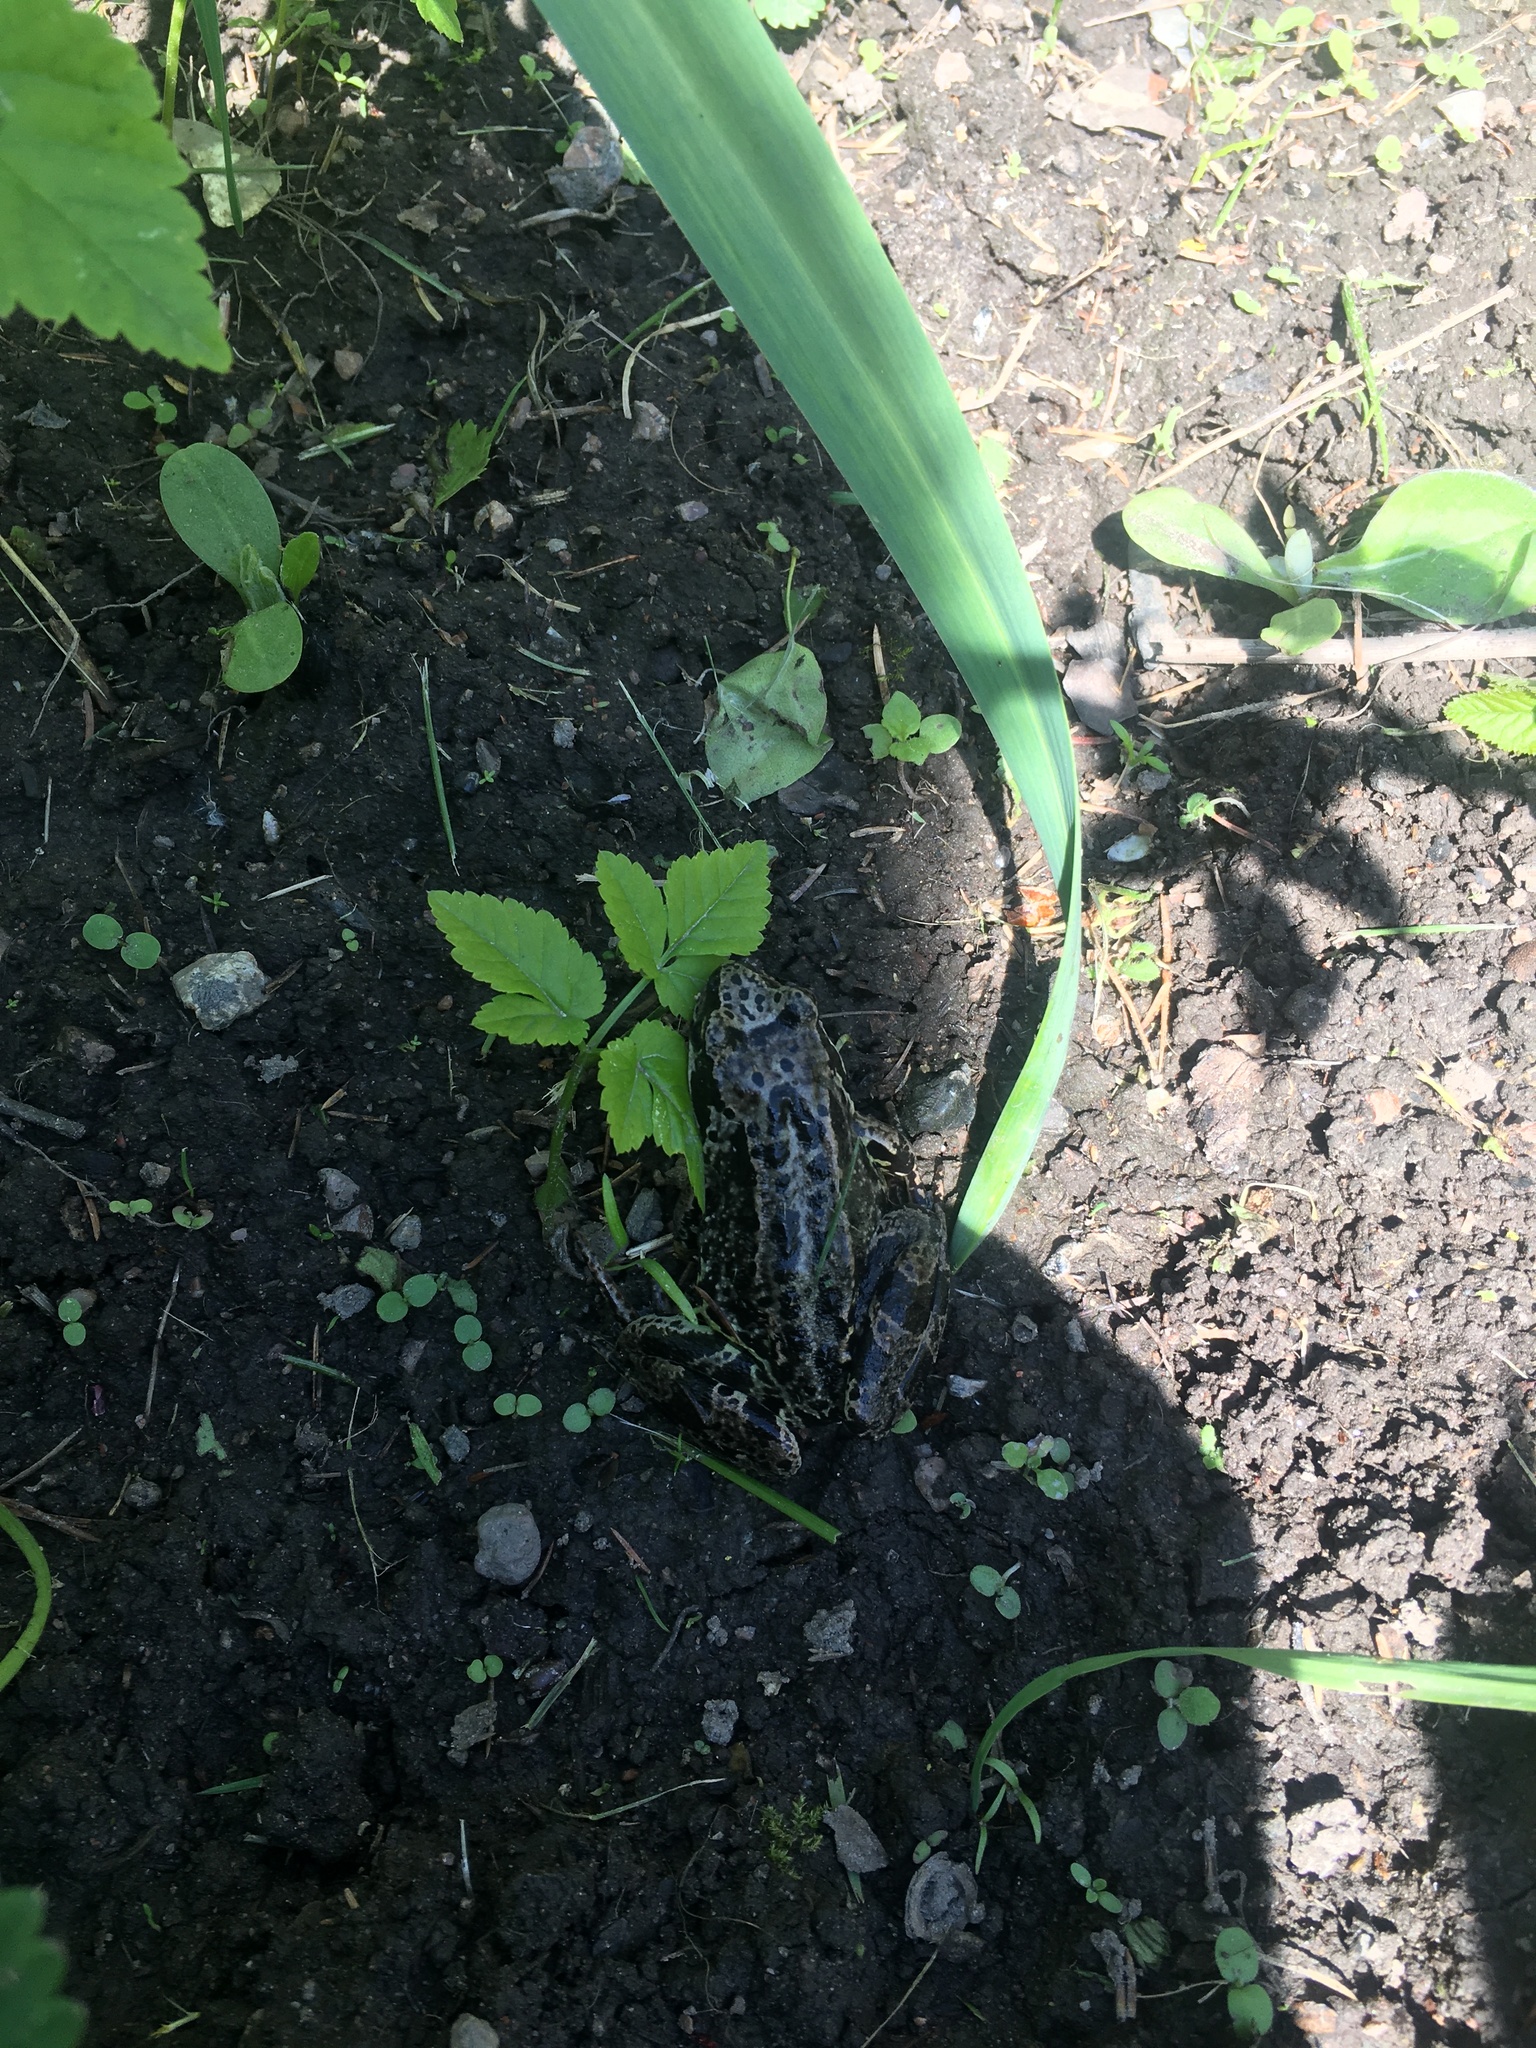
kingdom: Animalia
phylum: Chordata
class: Amphibia
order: Anura
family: Ranidae
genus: Rana
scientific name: Rana temporaria
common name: Common frog
